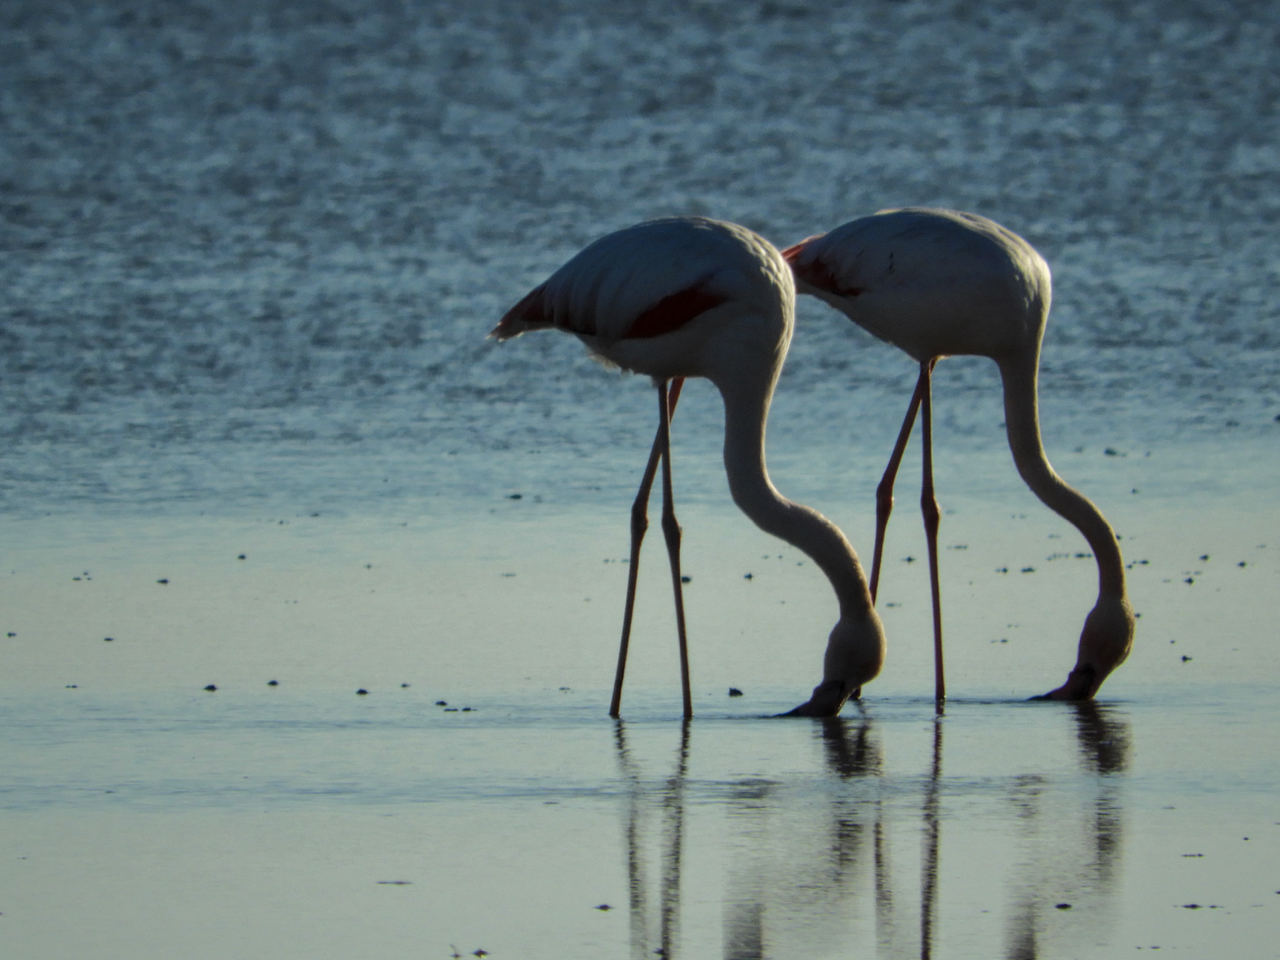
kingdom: Animalia
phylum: Chordata
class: Aves
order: Phoenicopteriformes
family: Phoenicopteridae
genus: Phoenicopterus
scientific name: Phoenicopterus roseus
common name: Greater flamingo
